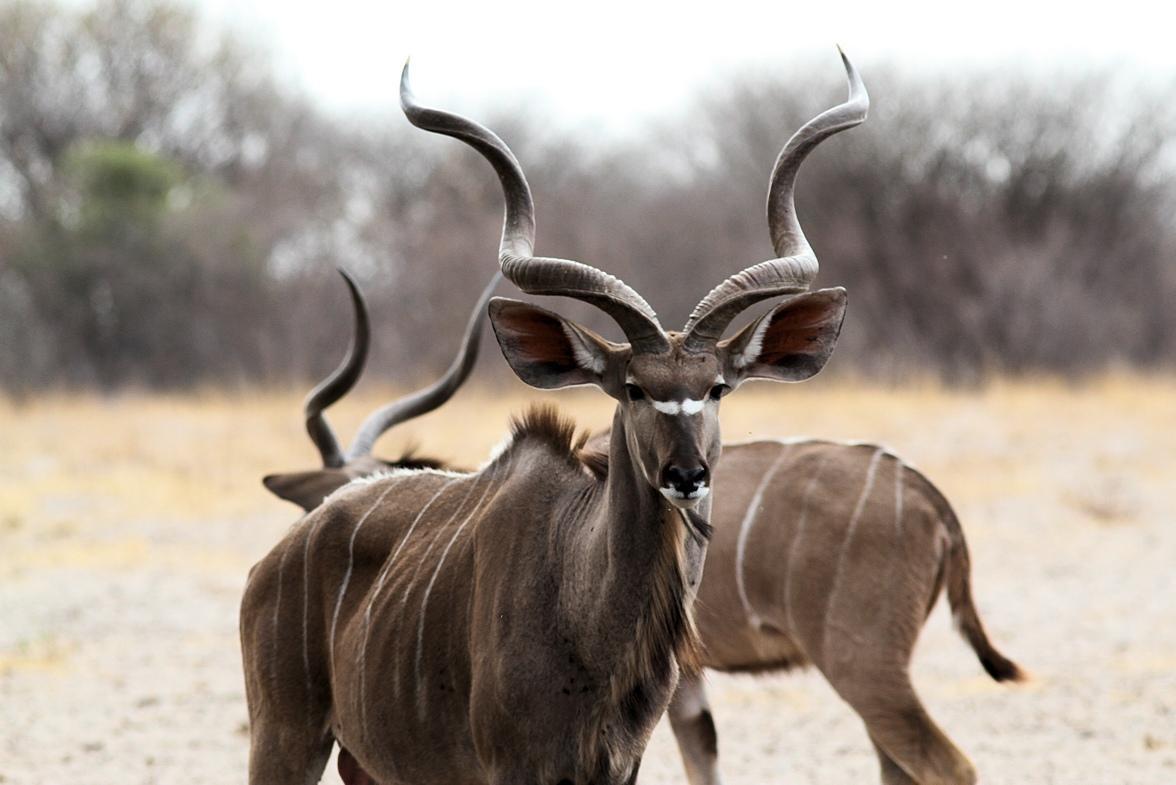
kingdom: Animalia
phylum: Chordata
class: Mammalia
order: Artiodactyla
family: Bovidae
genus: Tragelaphus
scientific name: Tragelaphus strepsiceros
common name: Greater kudu
